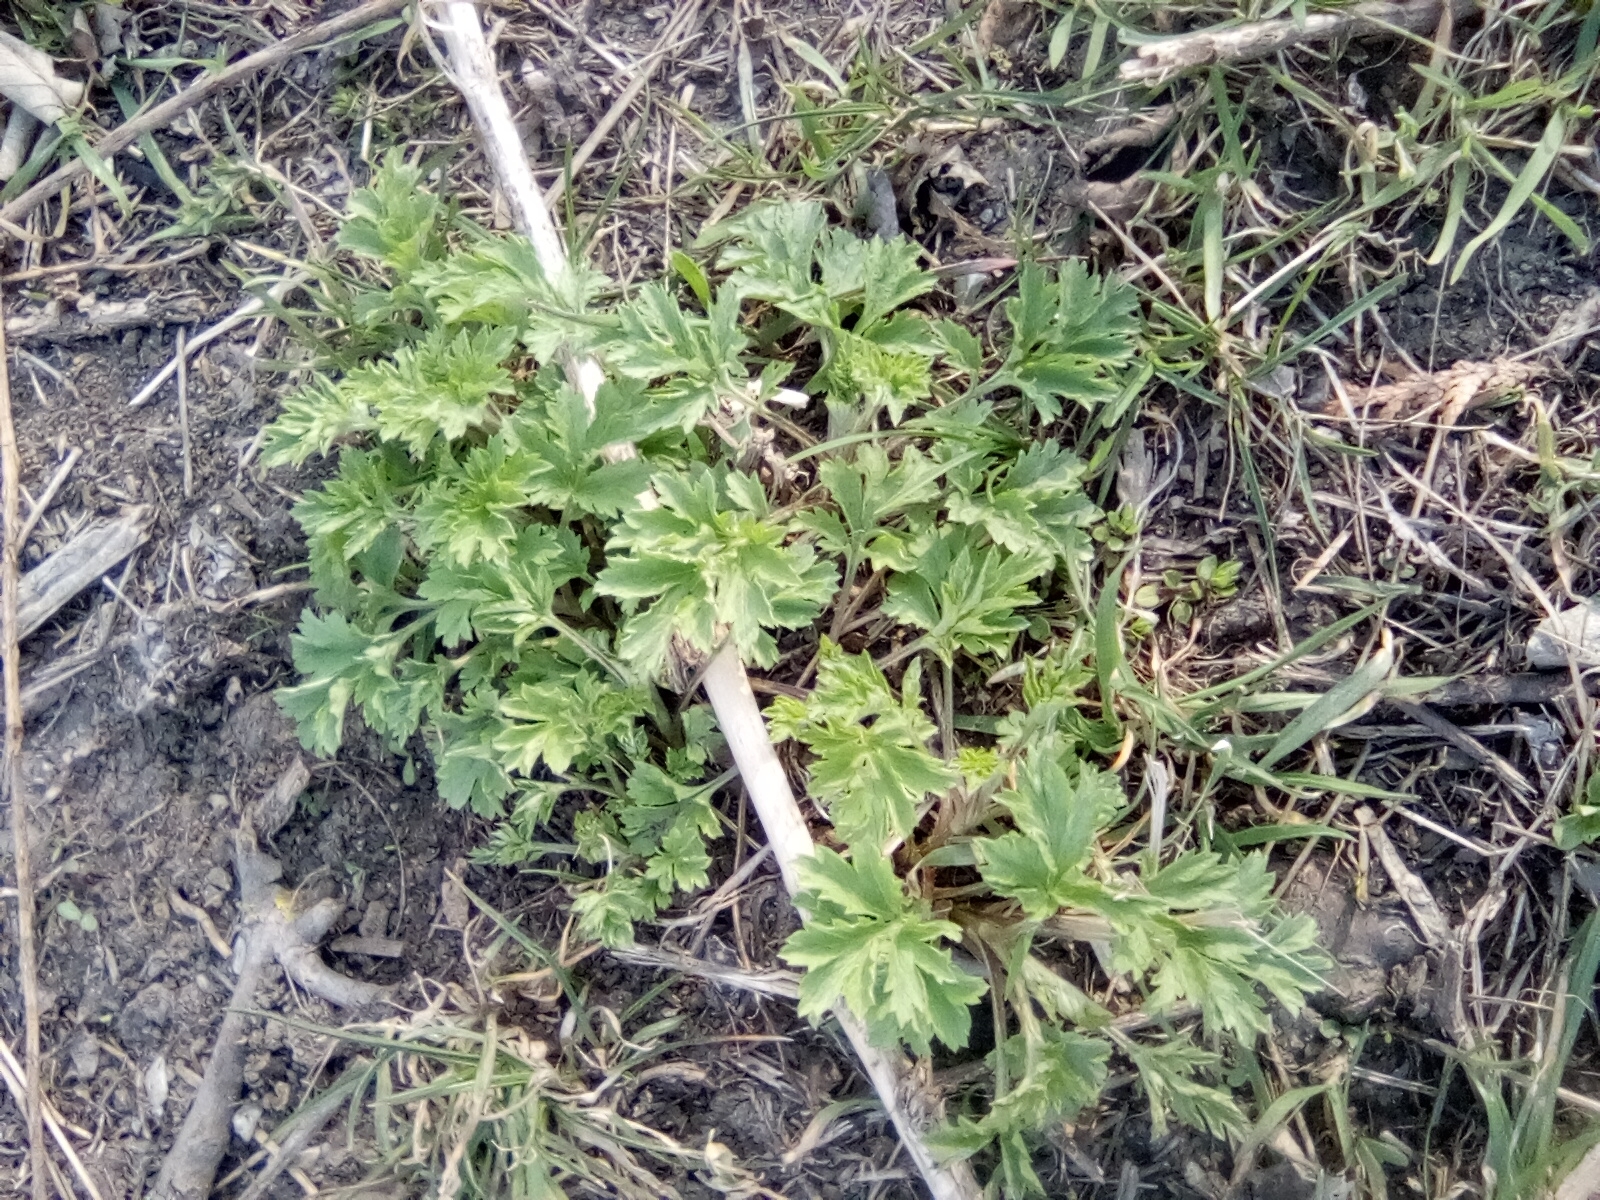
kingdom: Plantae
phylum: Tracheophyta
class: Magnoliopsida
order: Asterales
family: Asteraceae
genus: Artemisia
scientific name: Artemisia vulgaris
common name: Mugwort
